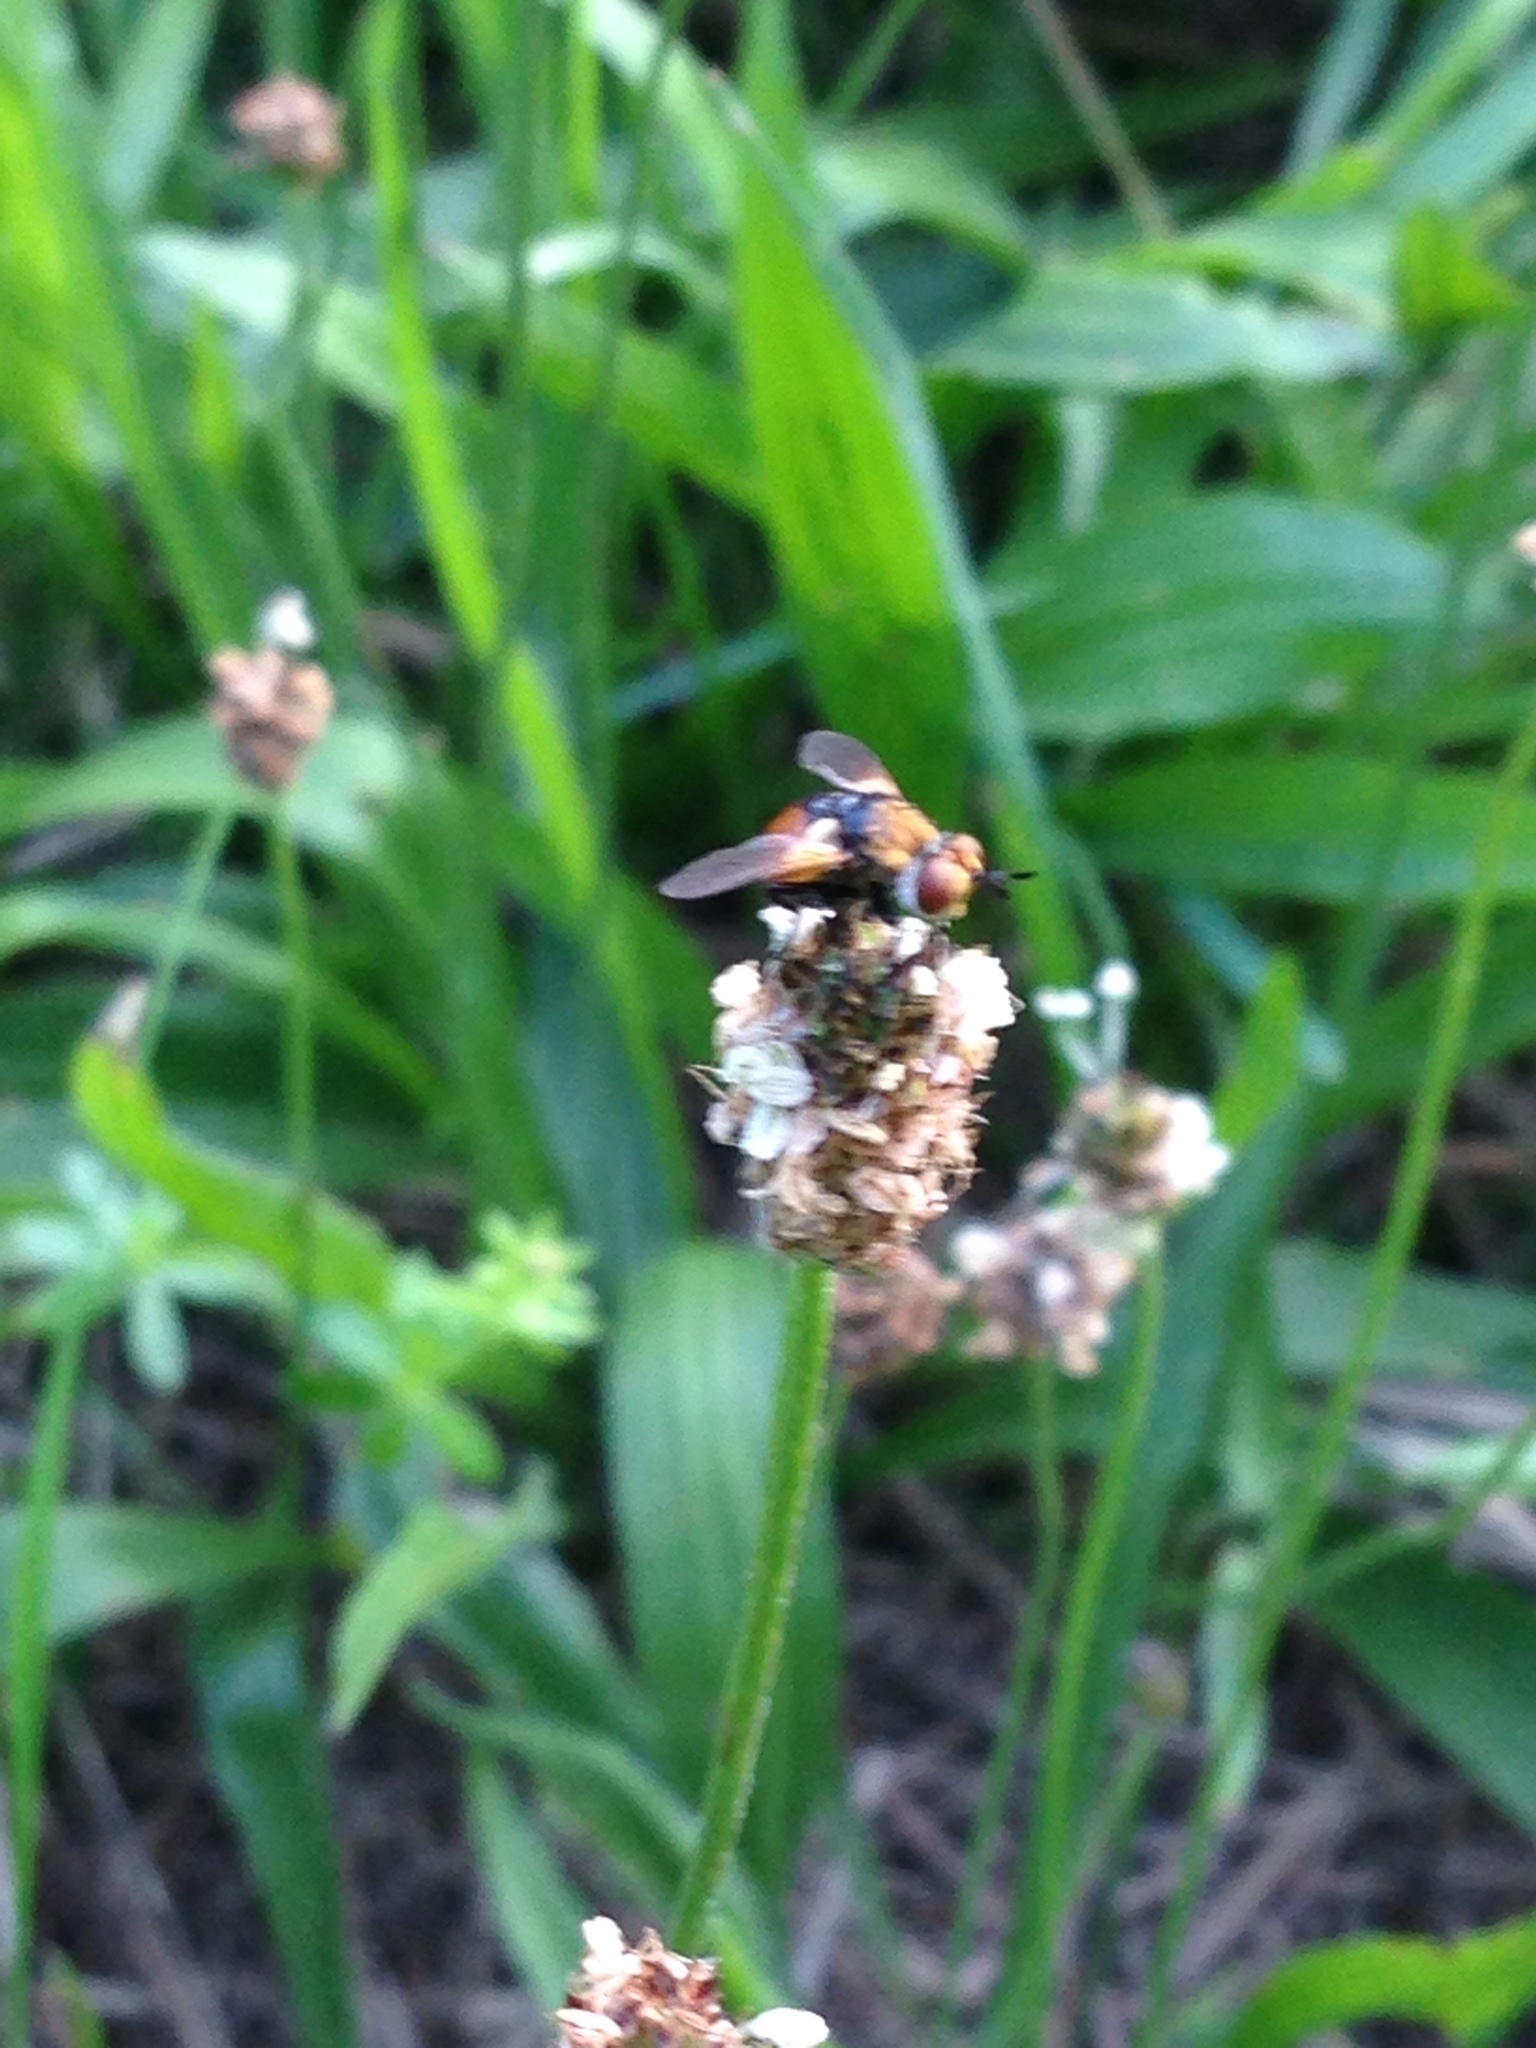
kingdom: Animalia
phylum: Arthropoda
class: Insecta
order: Diptera
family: Tachinidae
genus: Gymnosoma
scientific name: Gymnosoma
